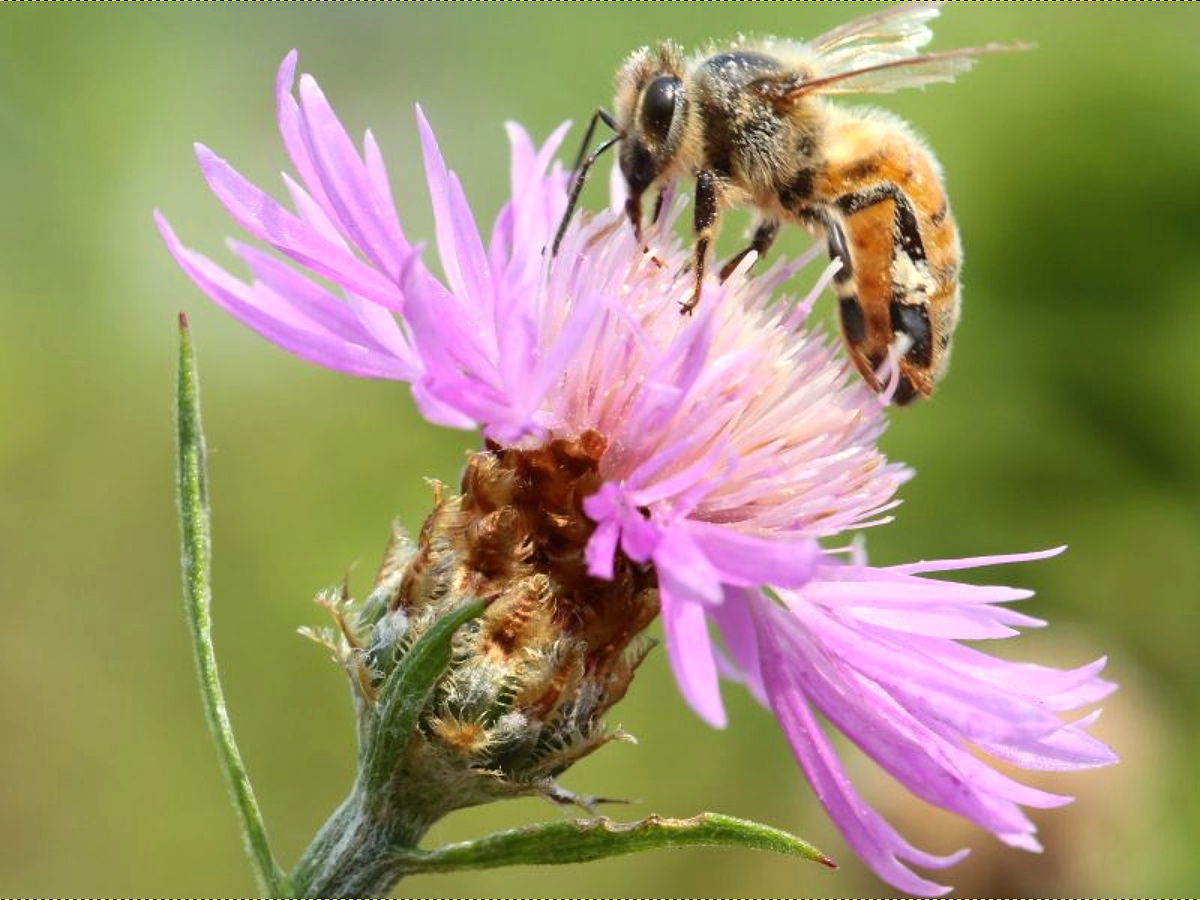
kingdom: Plantae
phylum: Tracheophyta
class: Magnoliopsida
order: Asterales
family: Asteraceae
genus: Centaurea
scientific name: Centaurea moncktonii
